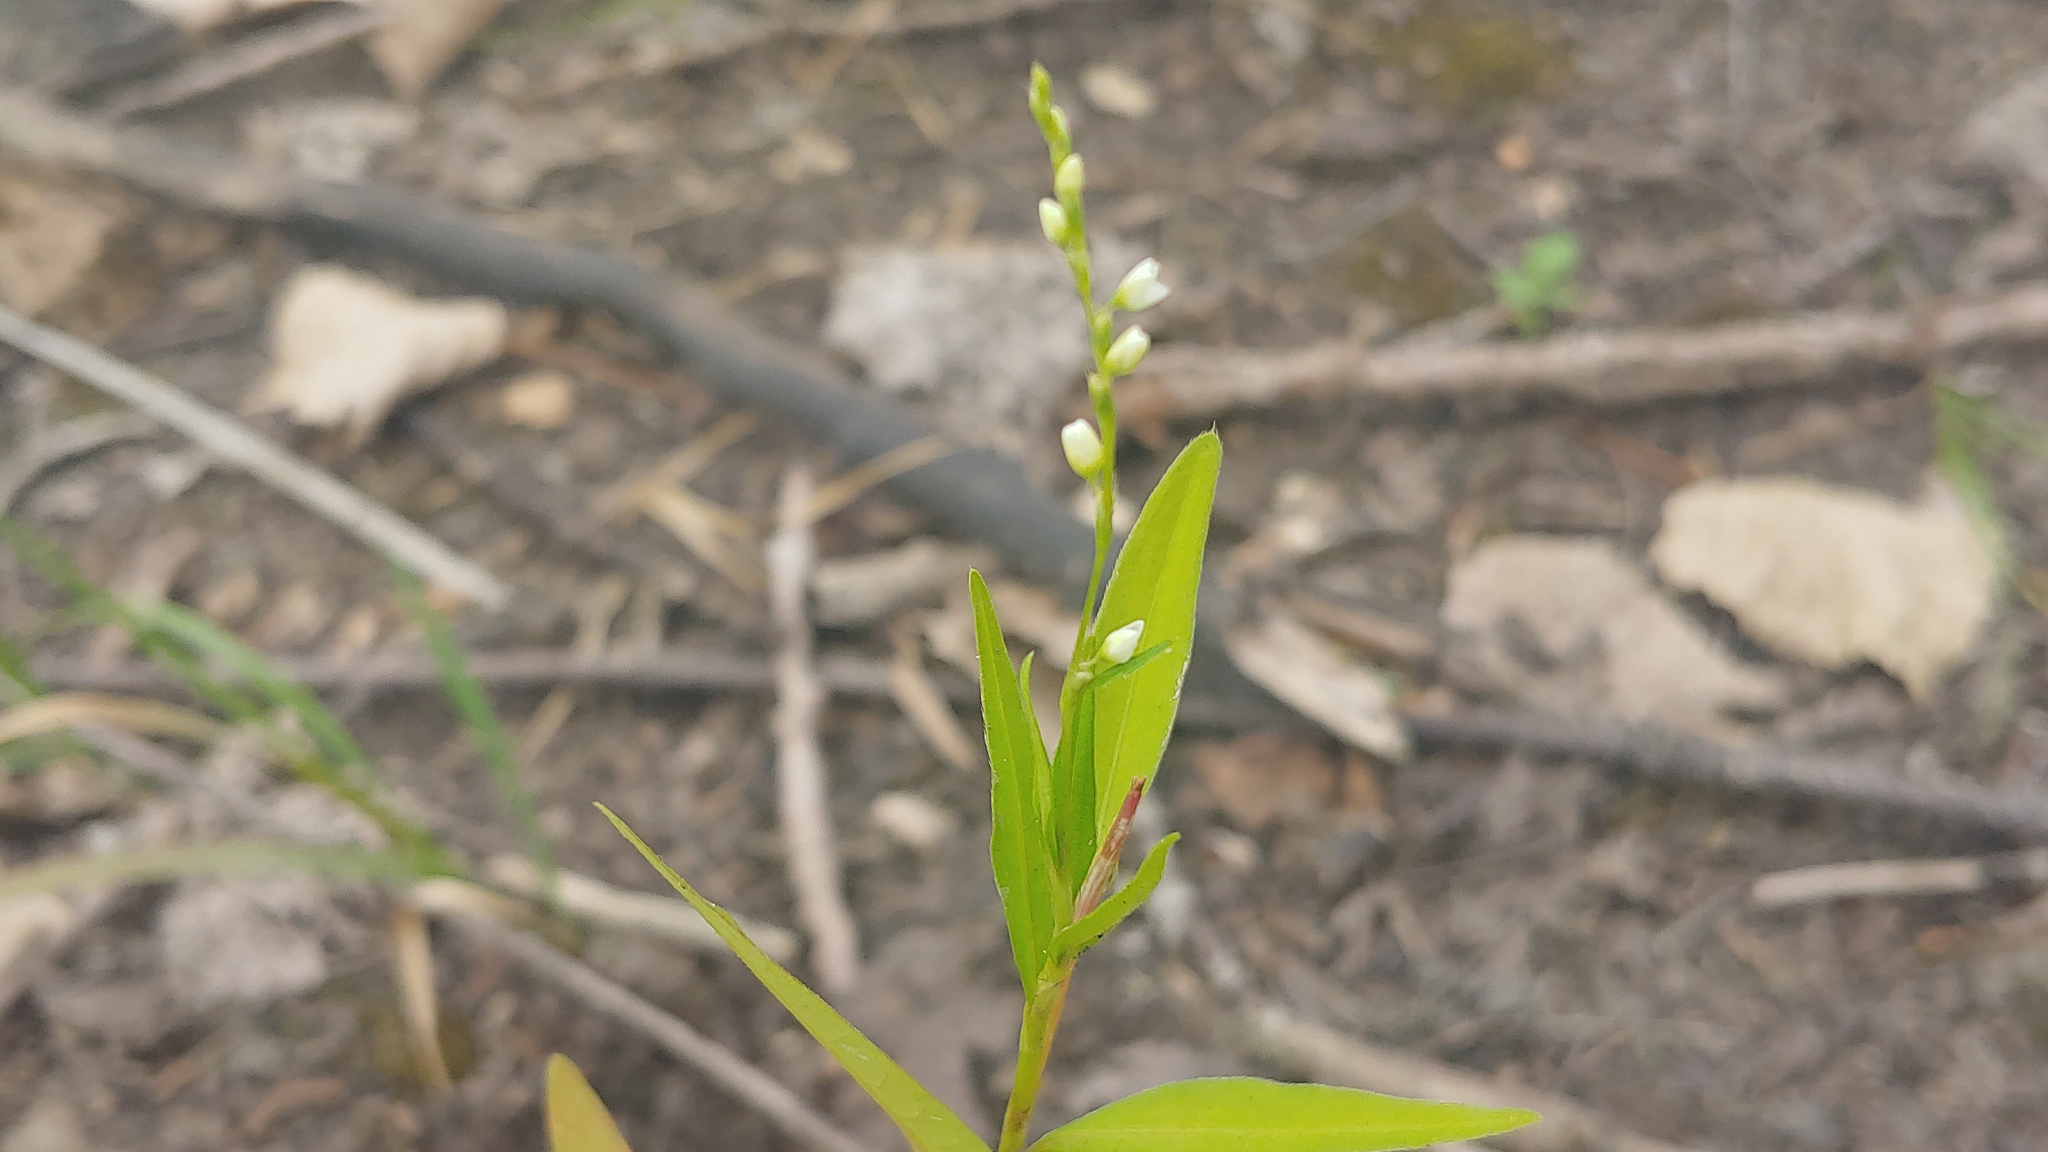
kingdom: Plantae
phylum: Tracheophyta
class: Magnoliopsida
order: Caryophyllales
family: Polygonaceae
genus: Persicaria
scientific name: Persicaria punctata
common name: Dotted smartweed
